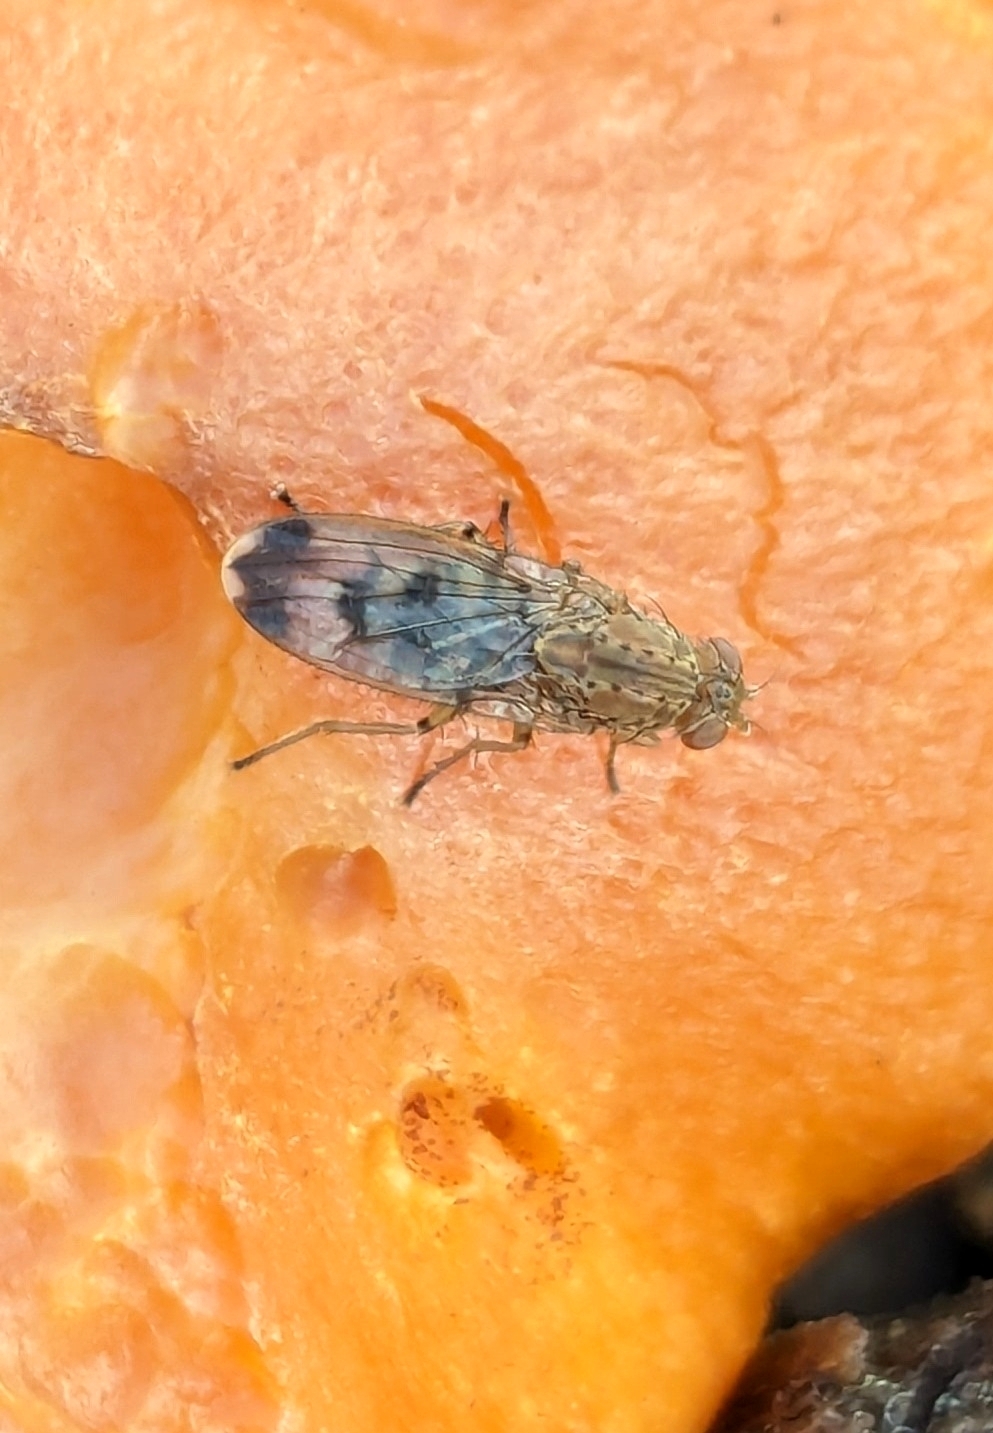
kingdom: Animalia
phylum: Arthropoda
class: Insecta
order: Diptera
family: Heleomyzidae
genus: Suillia
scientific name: Suillia variegata
